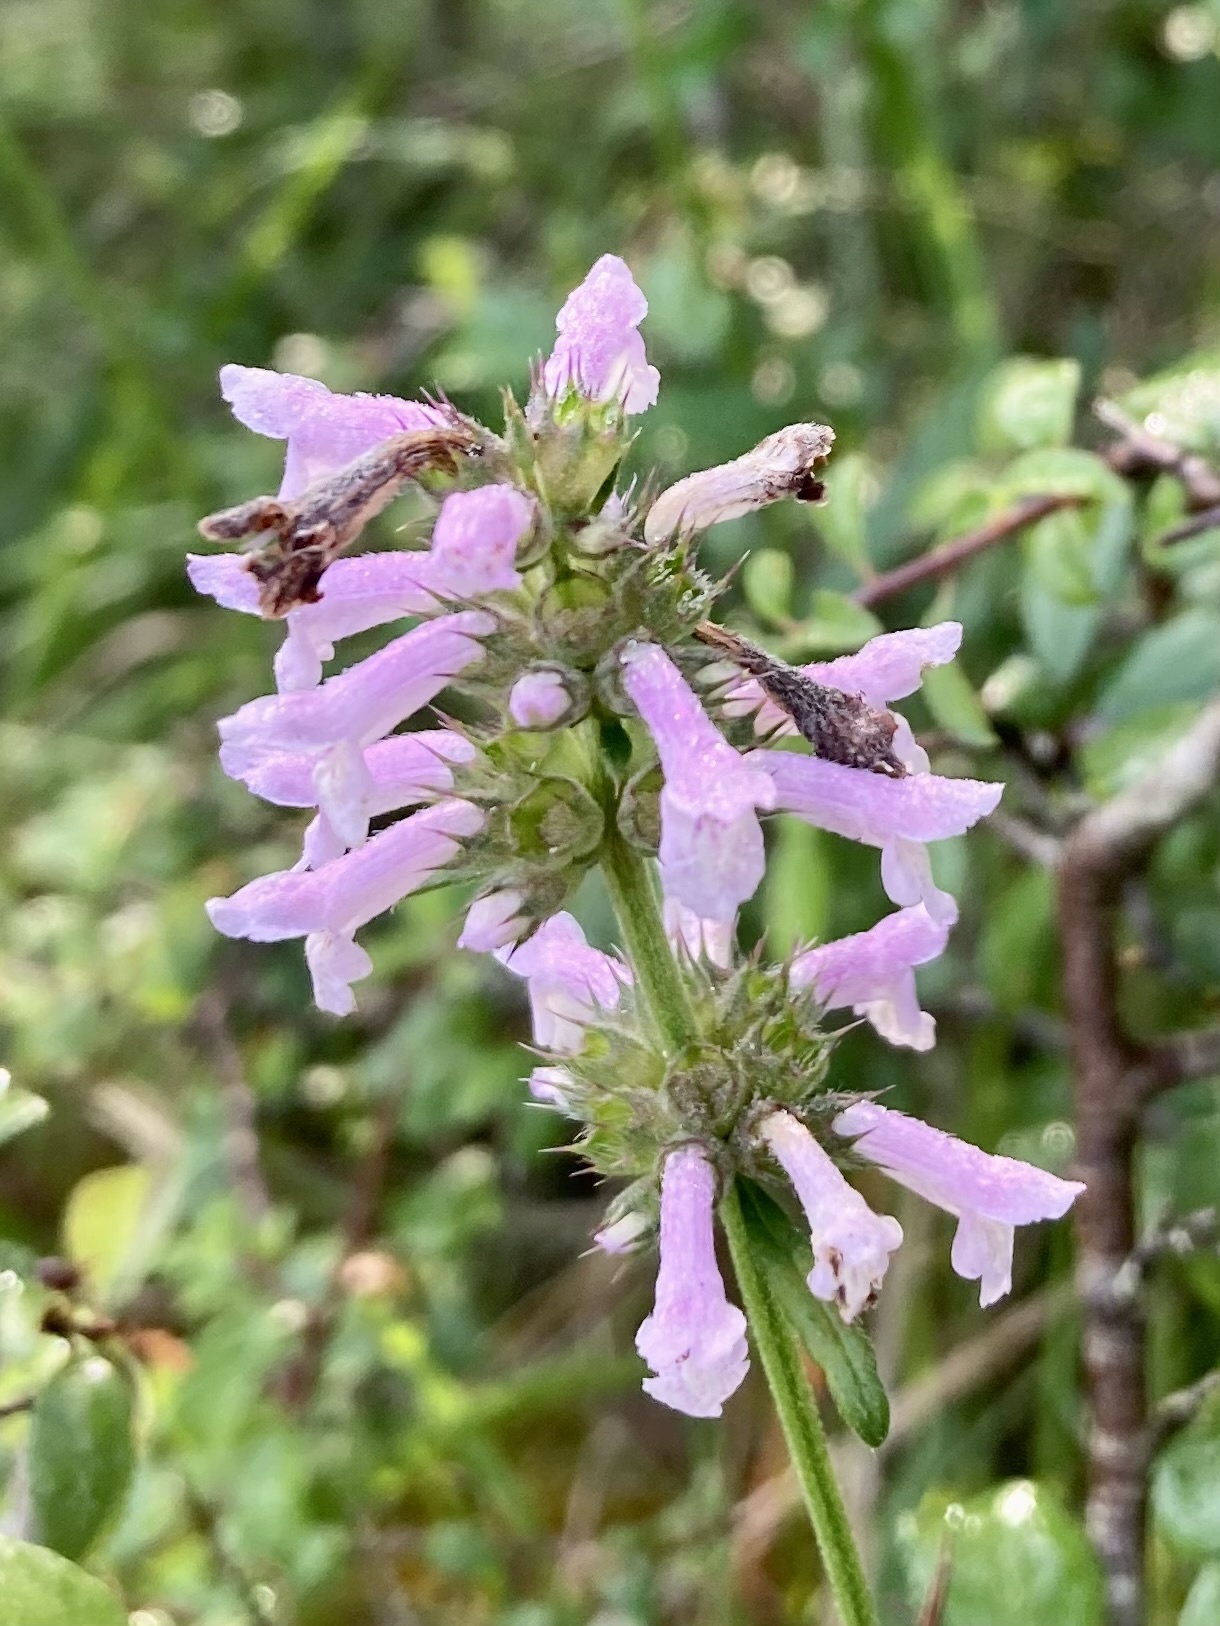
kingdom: Plantae
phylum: Tracheophyta
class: Magnoliopsida
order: Lamiales
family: Lamiaceae
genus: Betonica
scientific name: Betonica officinalis
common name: Bishop's-wort
